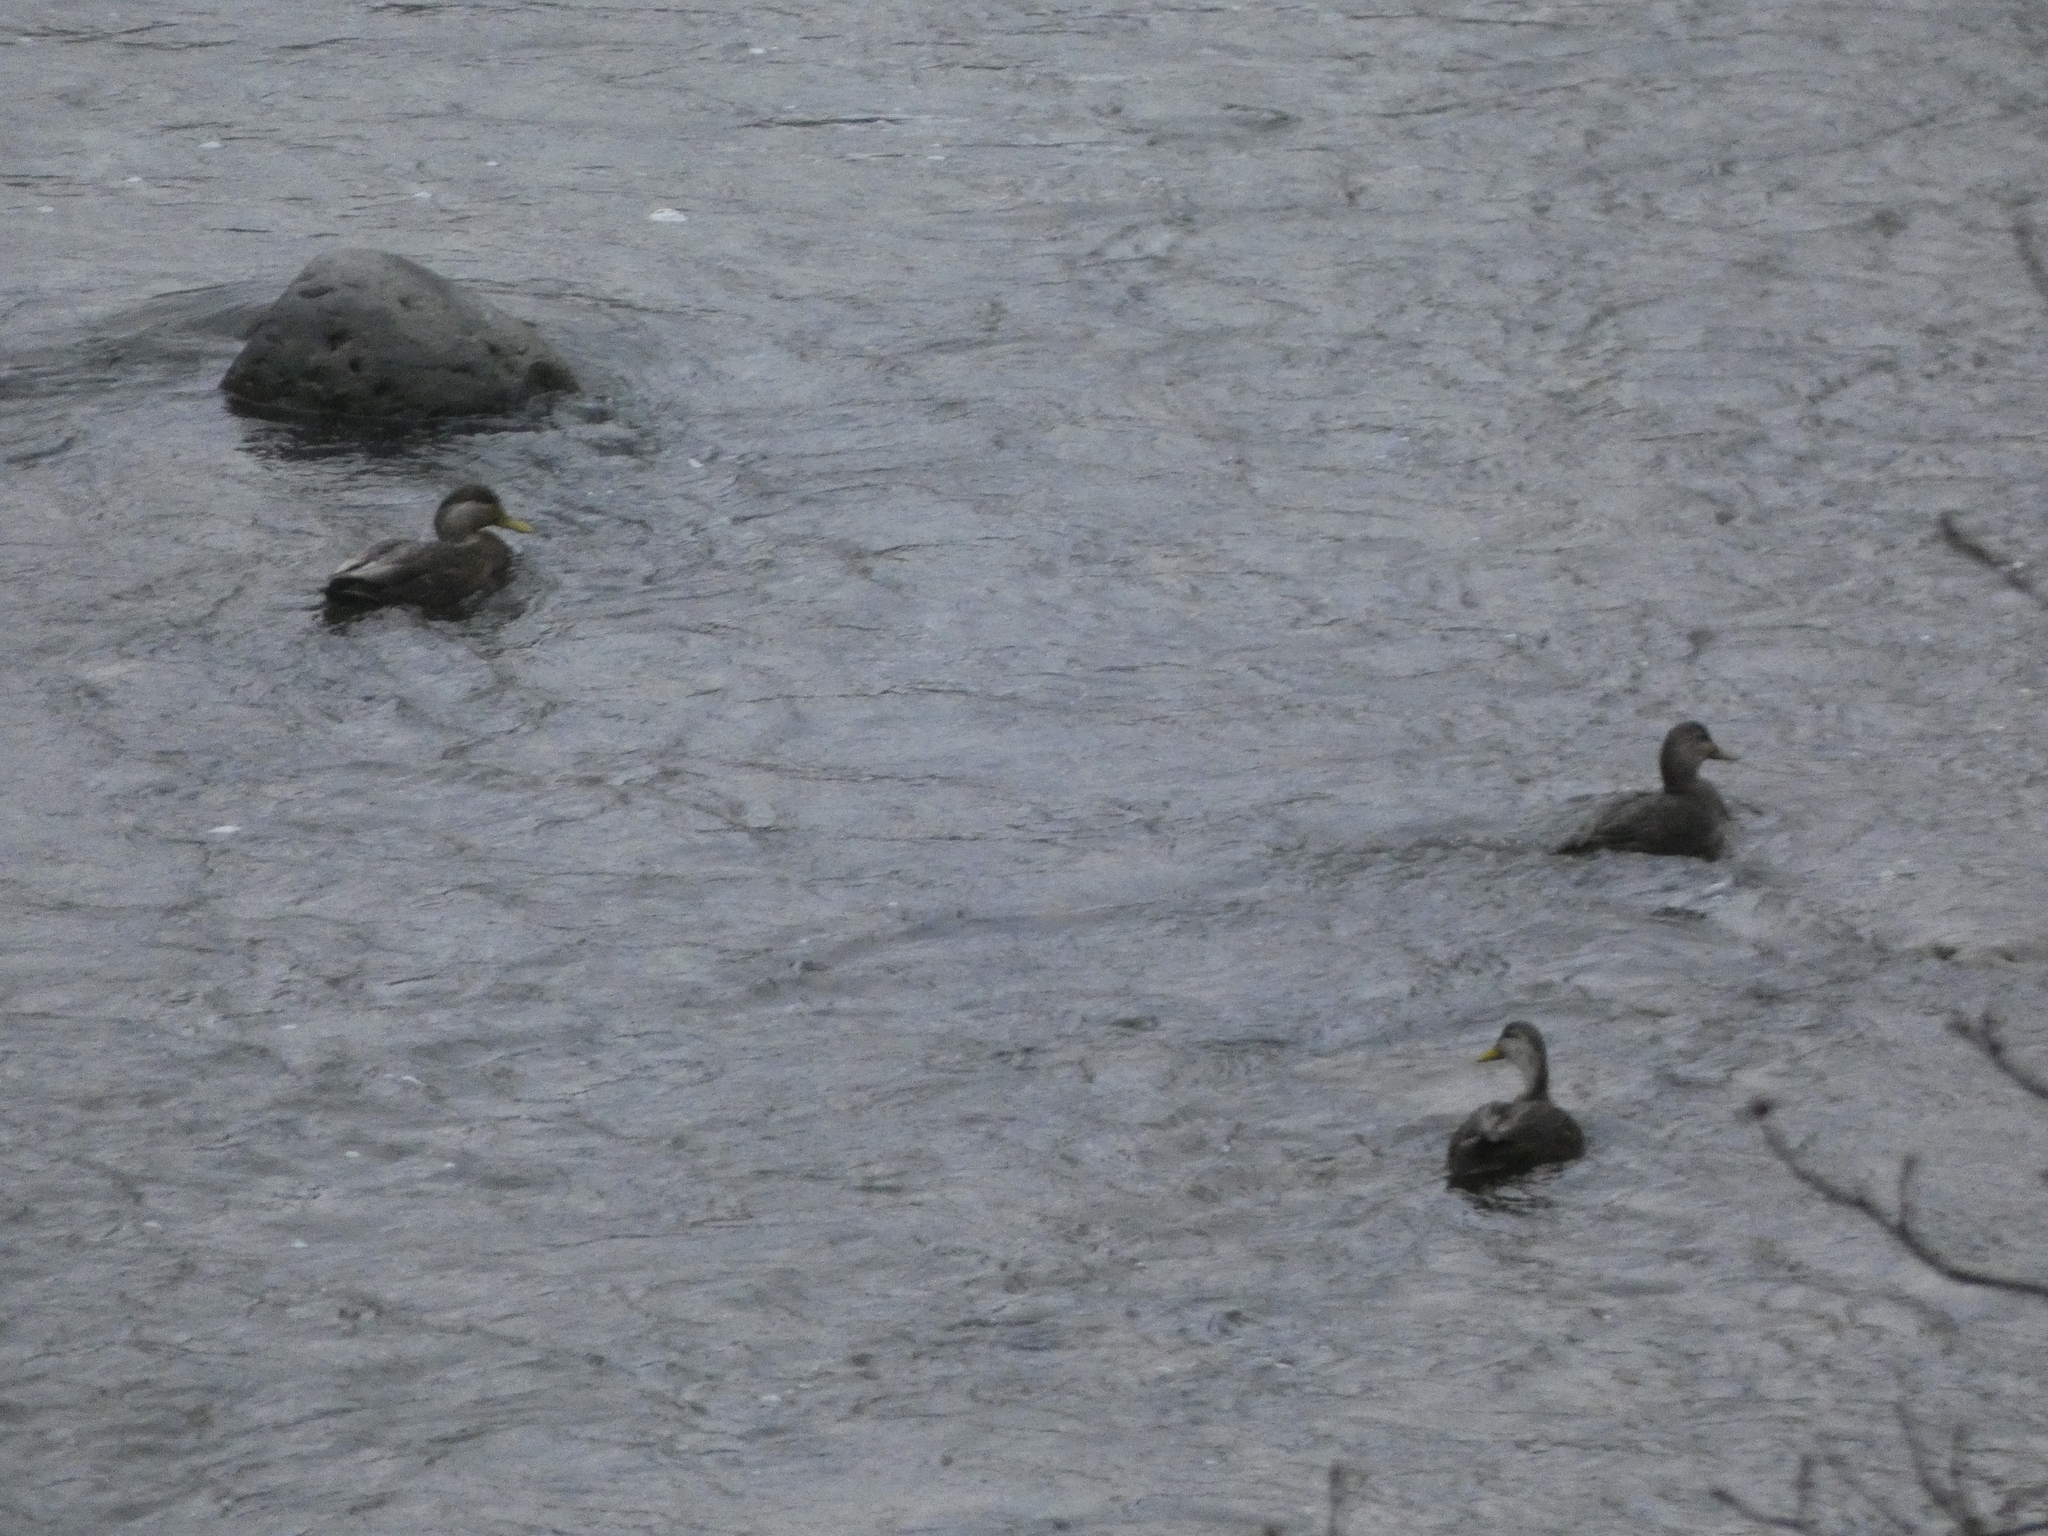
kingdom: Animalia
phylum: Chordata
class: Aves
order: Anseriformes
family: Anatidae
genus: Anas
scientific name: Anas rubripes
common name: American black duck
